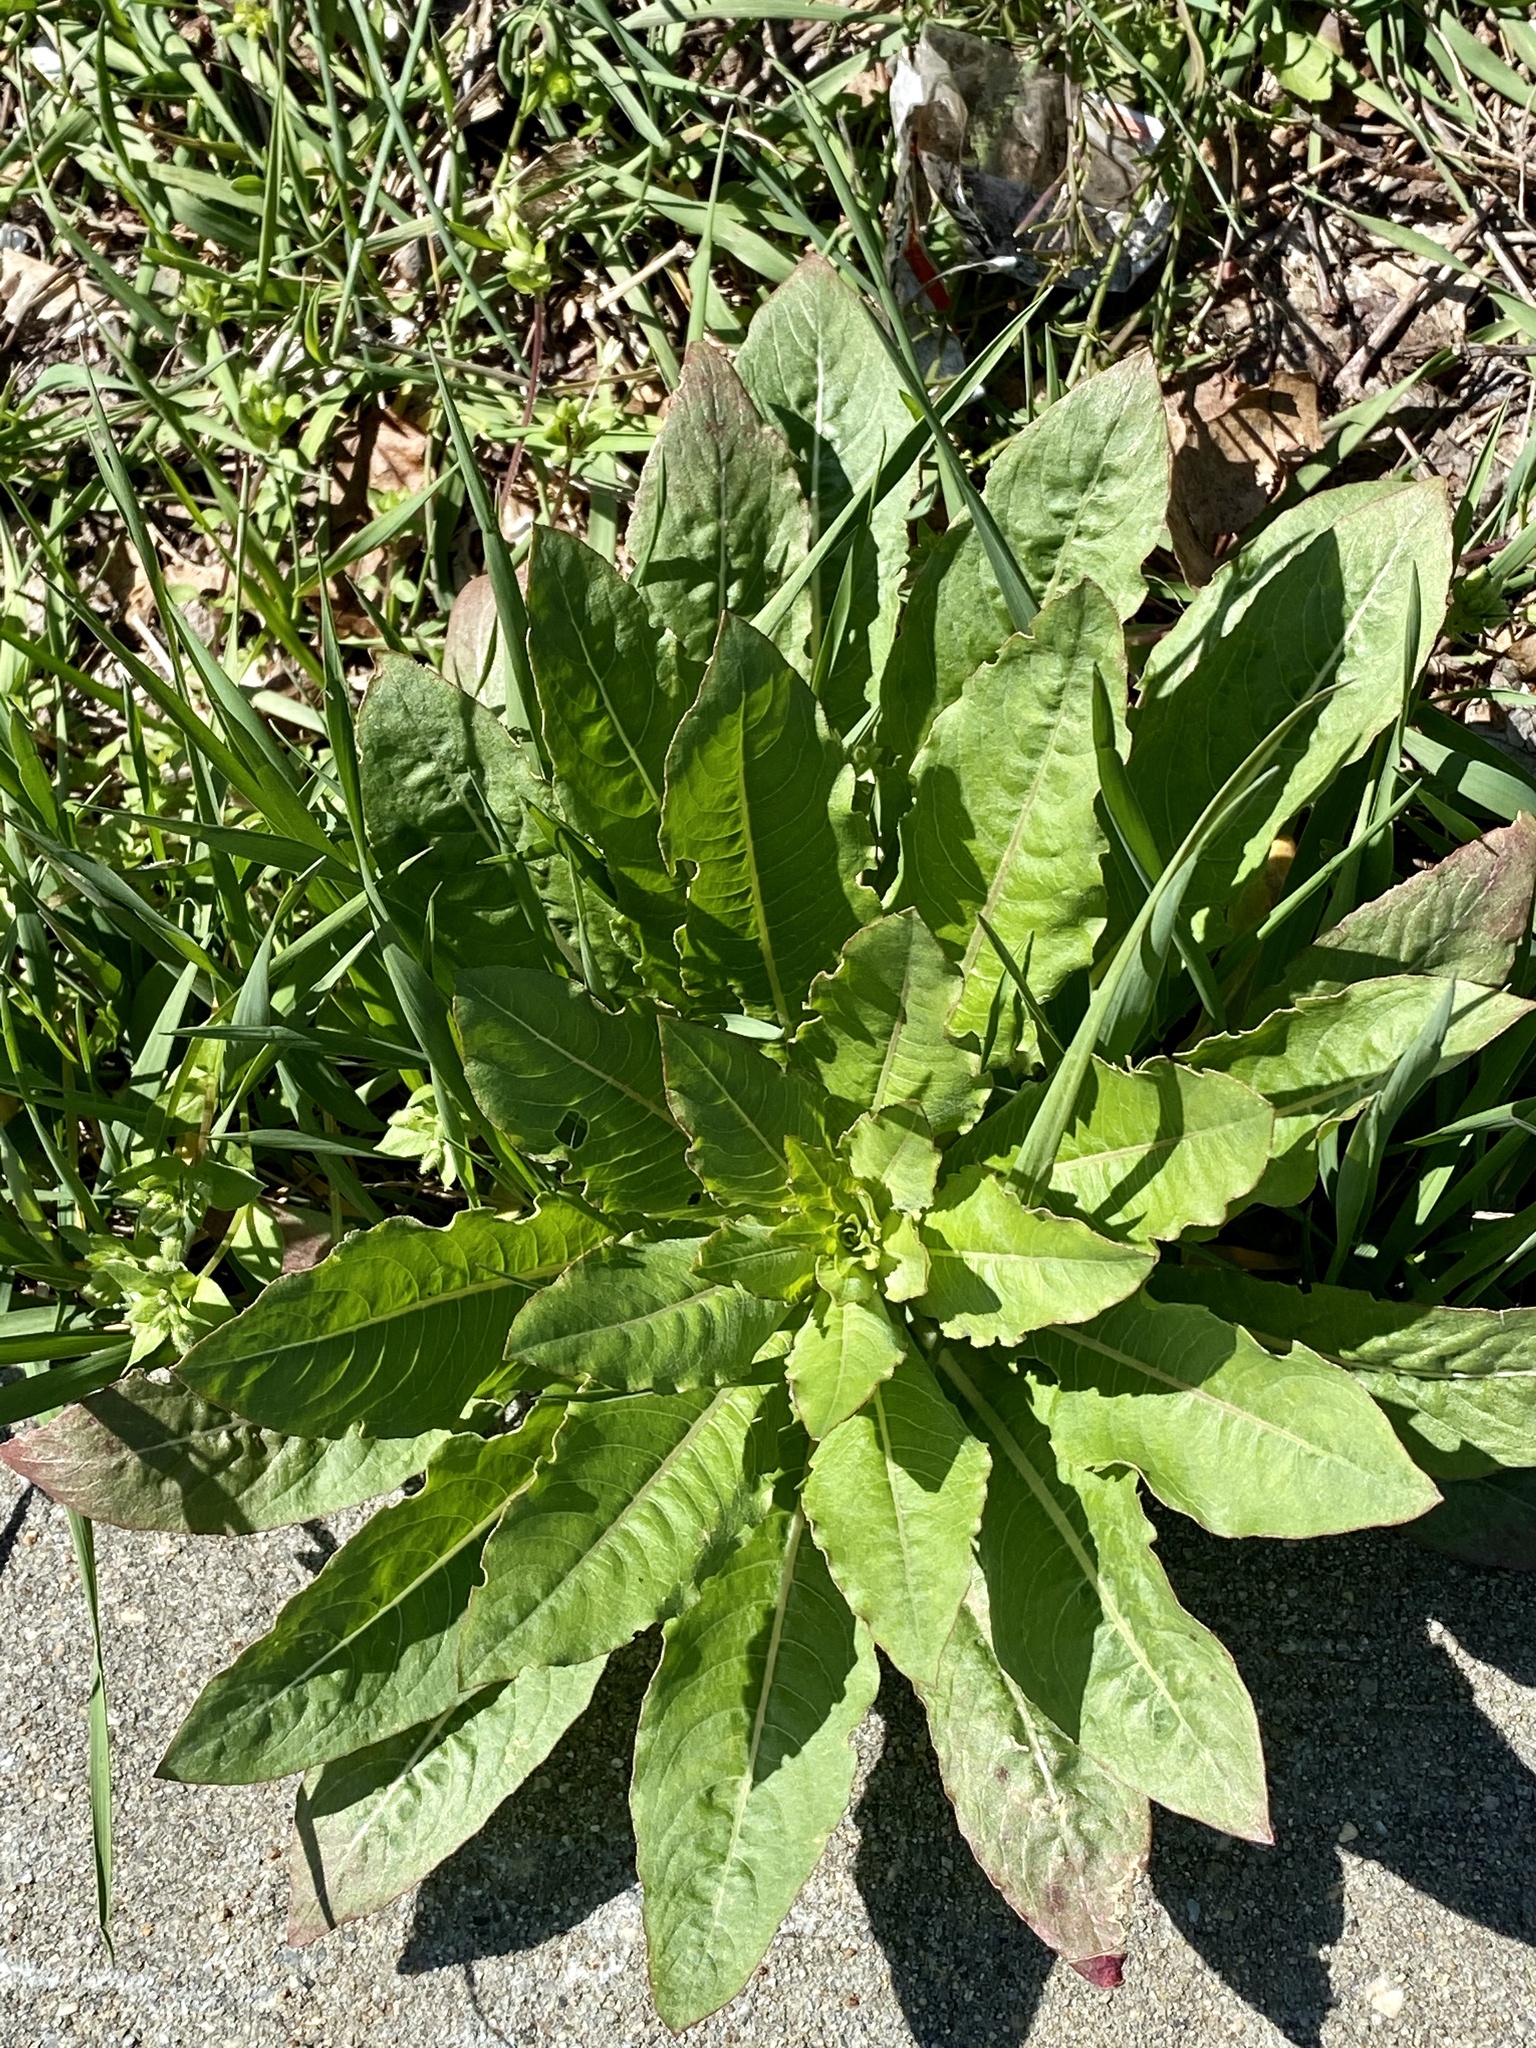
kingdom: Plantae
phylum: Tracheophyta
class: Magnoliopsida
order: Myrtales
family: Onagraceae
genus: Oenothera
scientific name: Oenothera biennis
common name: Common evening-primrose
